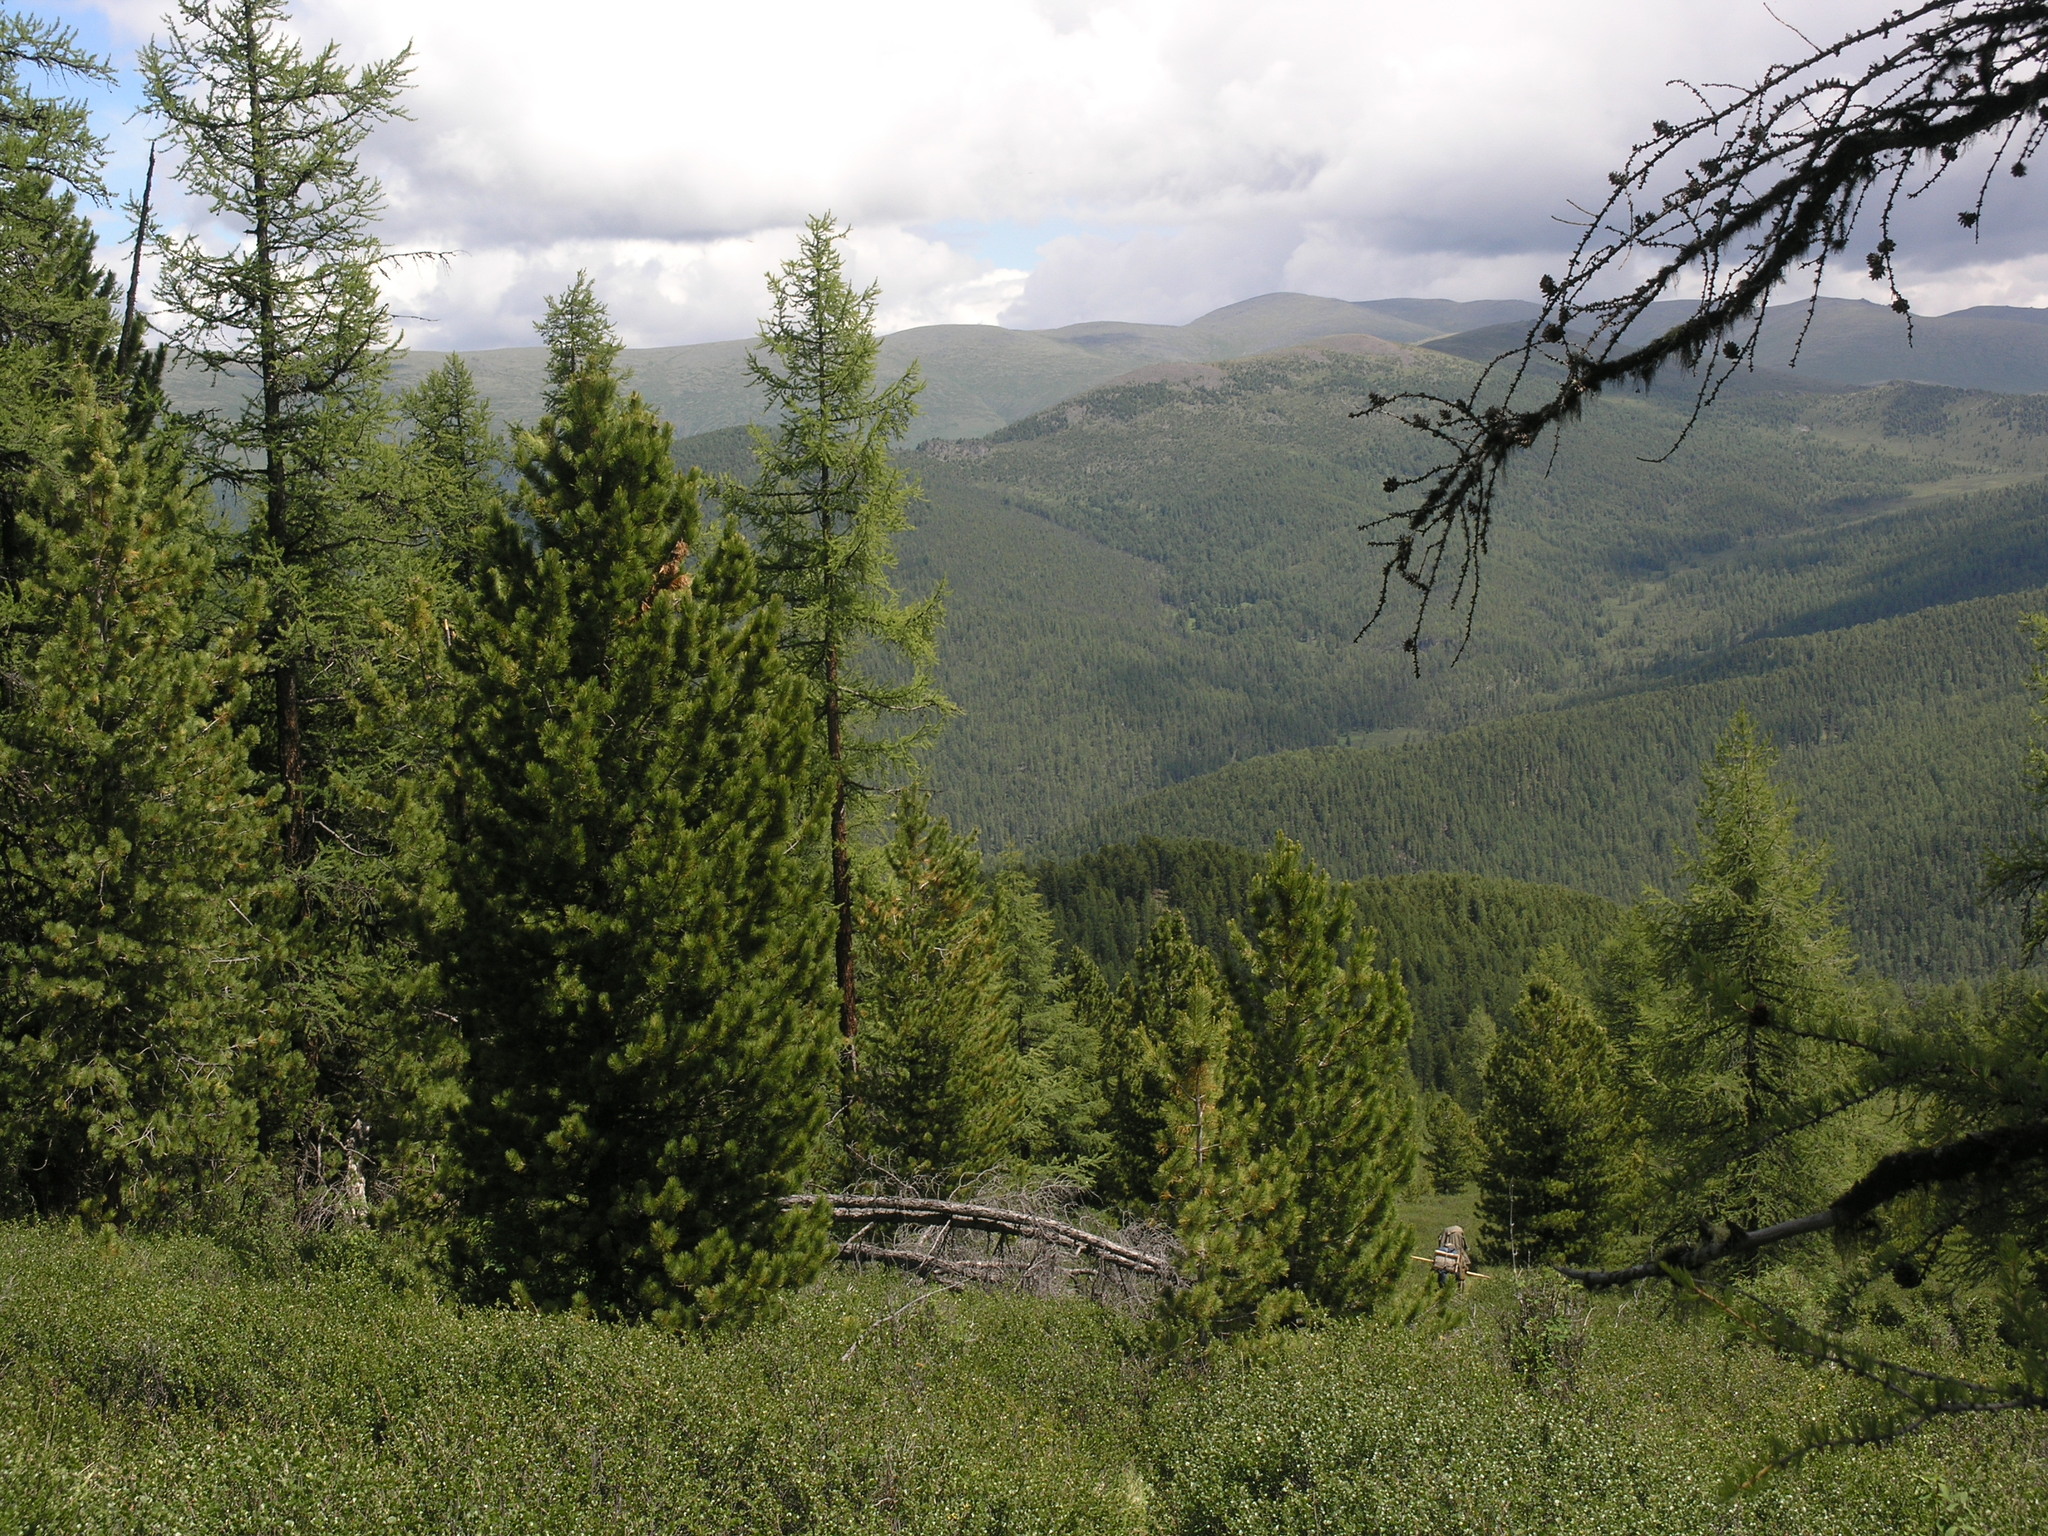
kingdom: Plantae
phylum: Tracheophyta
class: Pinopsida
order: Pinales
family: Pinaceae
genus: Pinus
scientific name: Pinus sibirica
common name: Siberian pine
